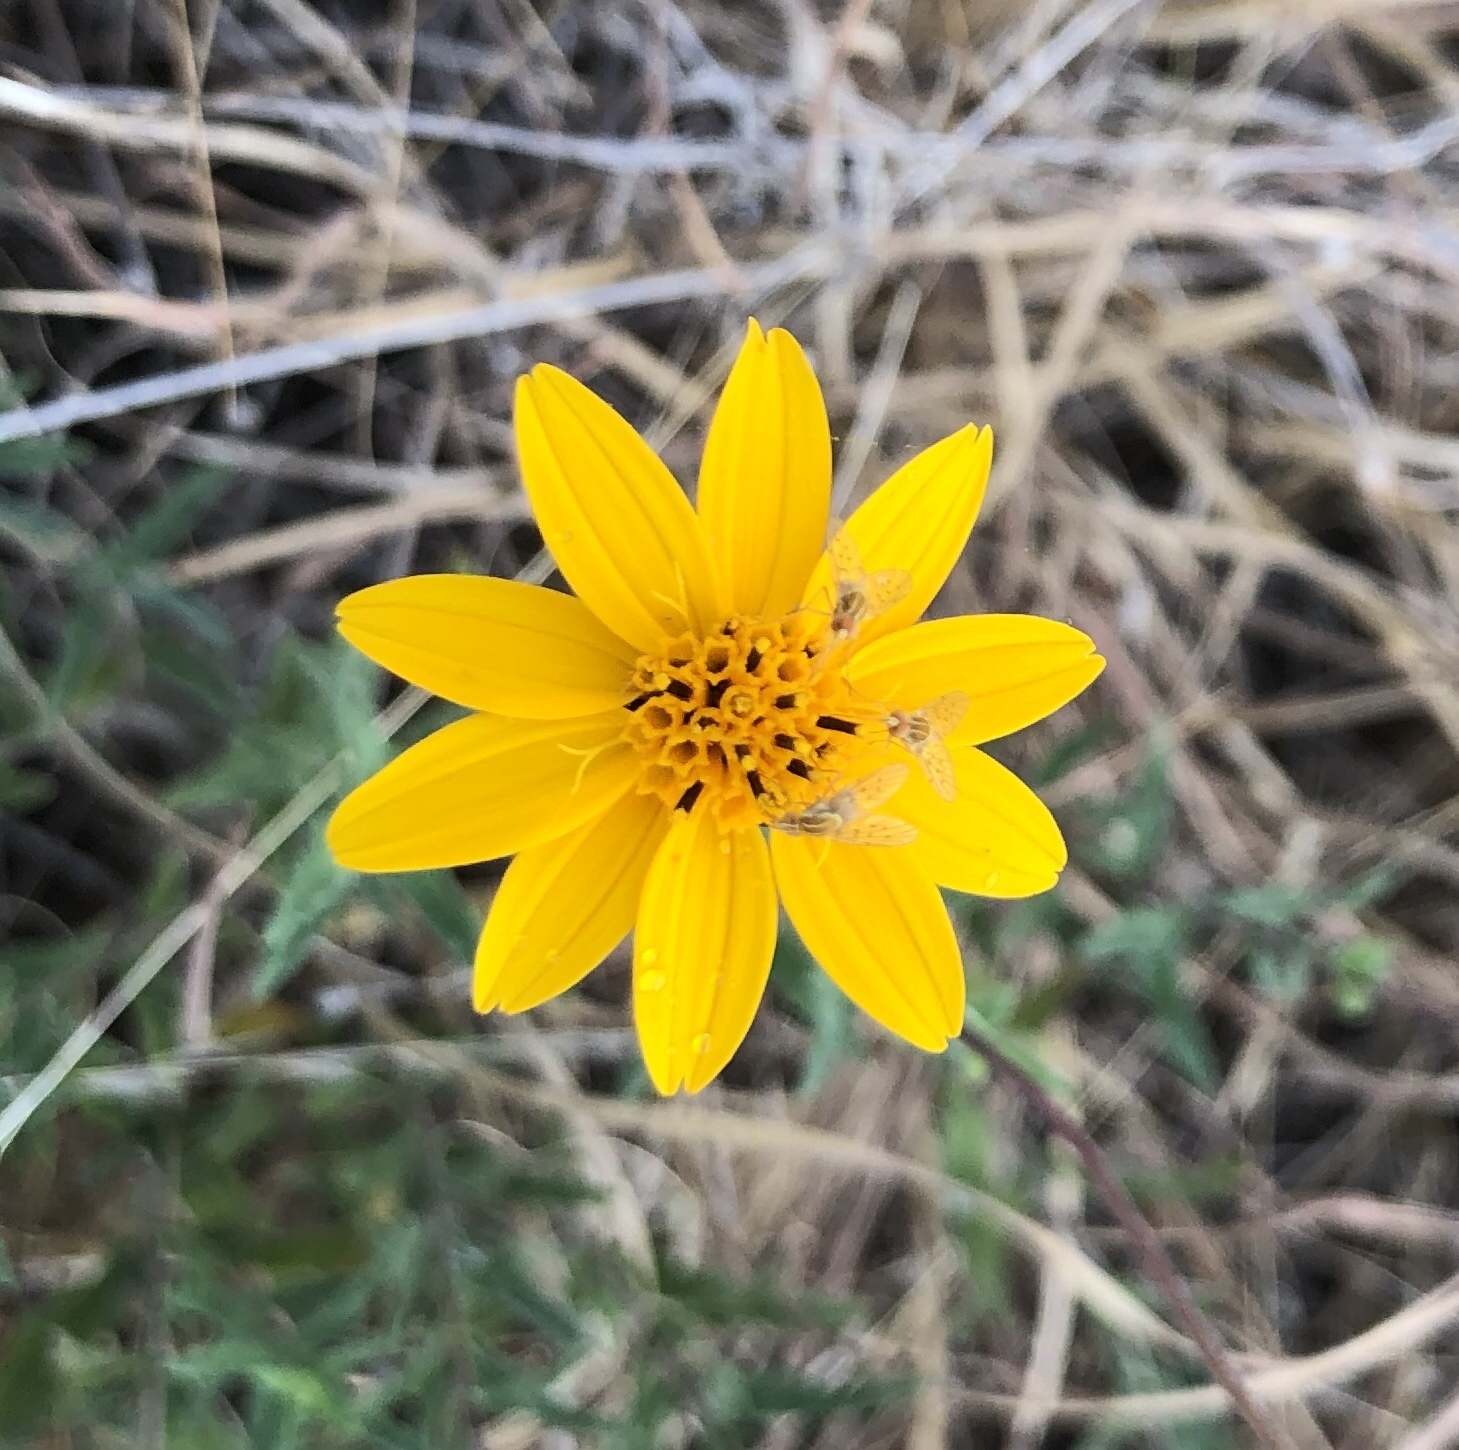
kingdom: Plantae
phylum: Tracheophyta
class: Magnoliopsida
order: Asterales
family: Asteraceae
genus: Wedelia
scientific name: Wedelia acapulcensis
